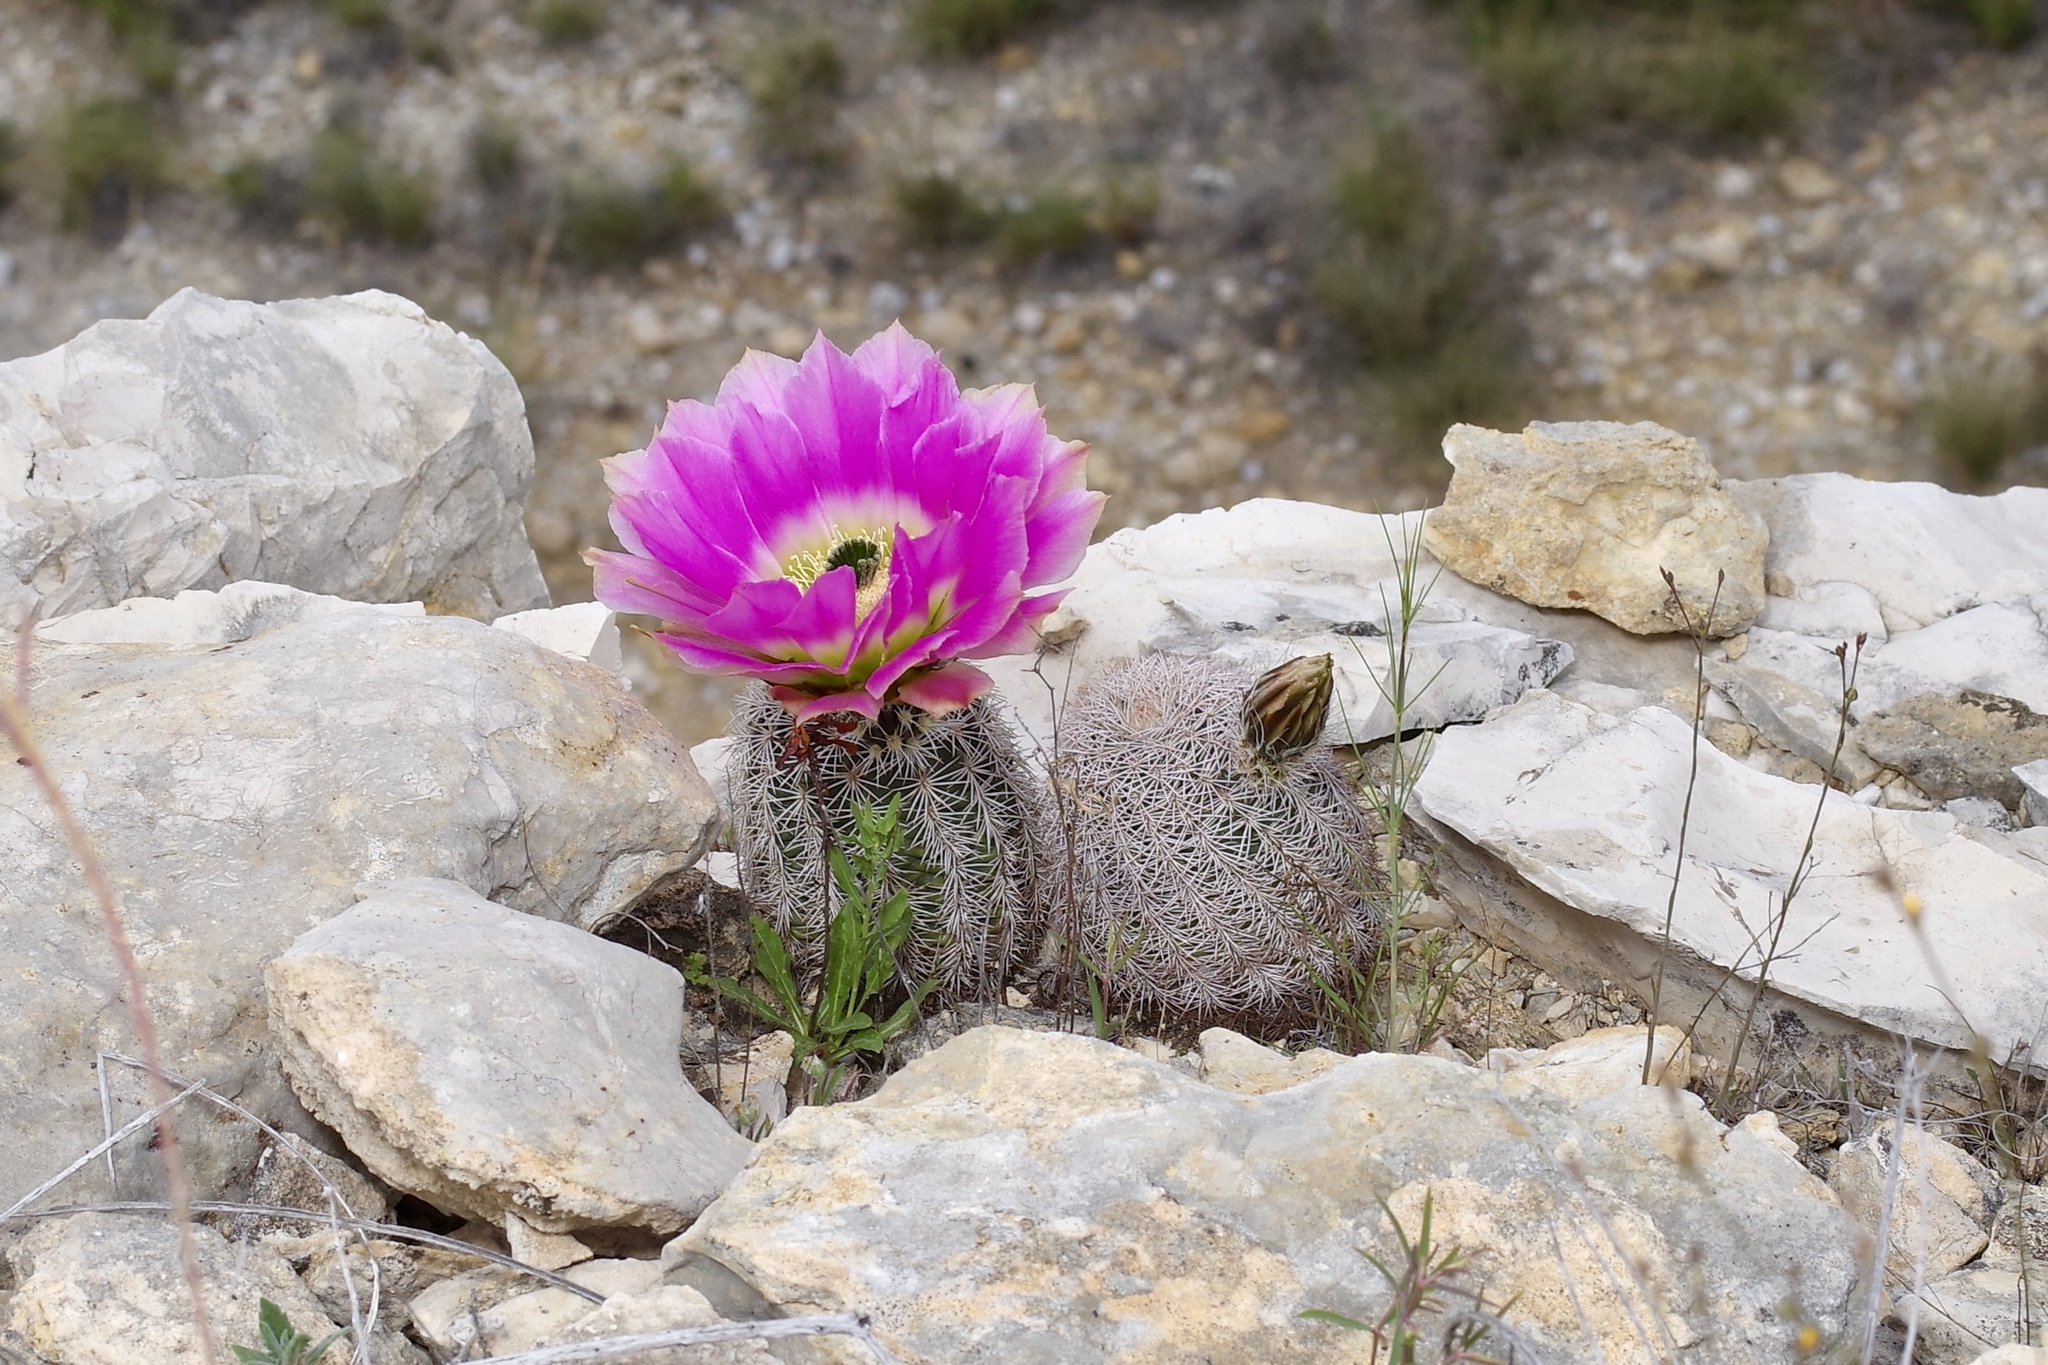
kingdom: Plantae
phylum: Tracheophyta
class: Magnoliopsida
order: Caryophyllales
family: Cactaceae
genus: Echinocereus
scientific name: Echinocereus pectinatus
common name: Rainbow cactus
